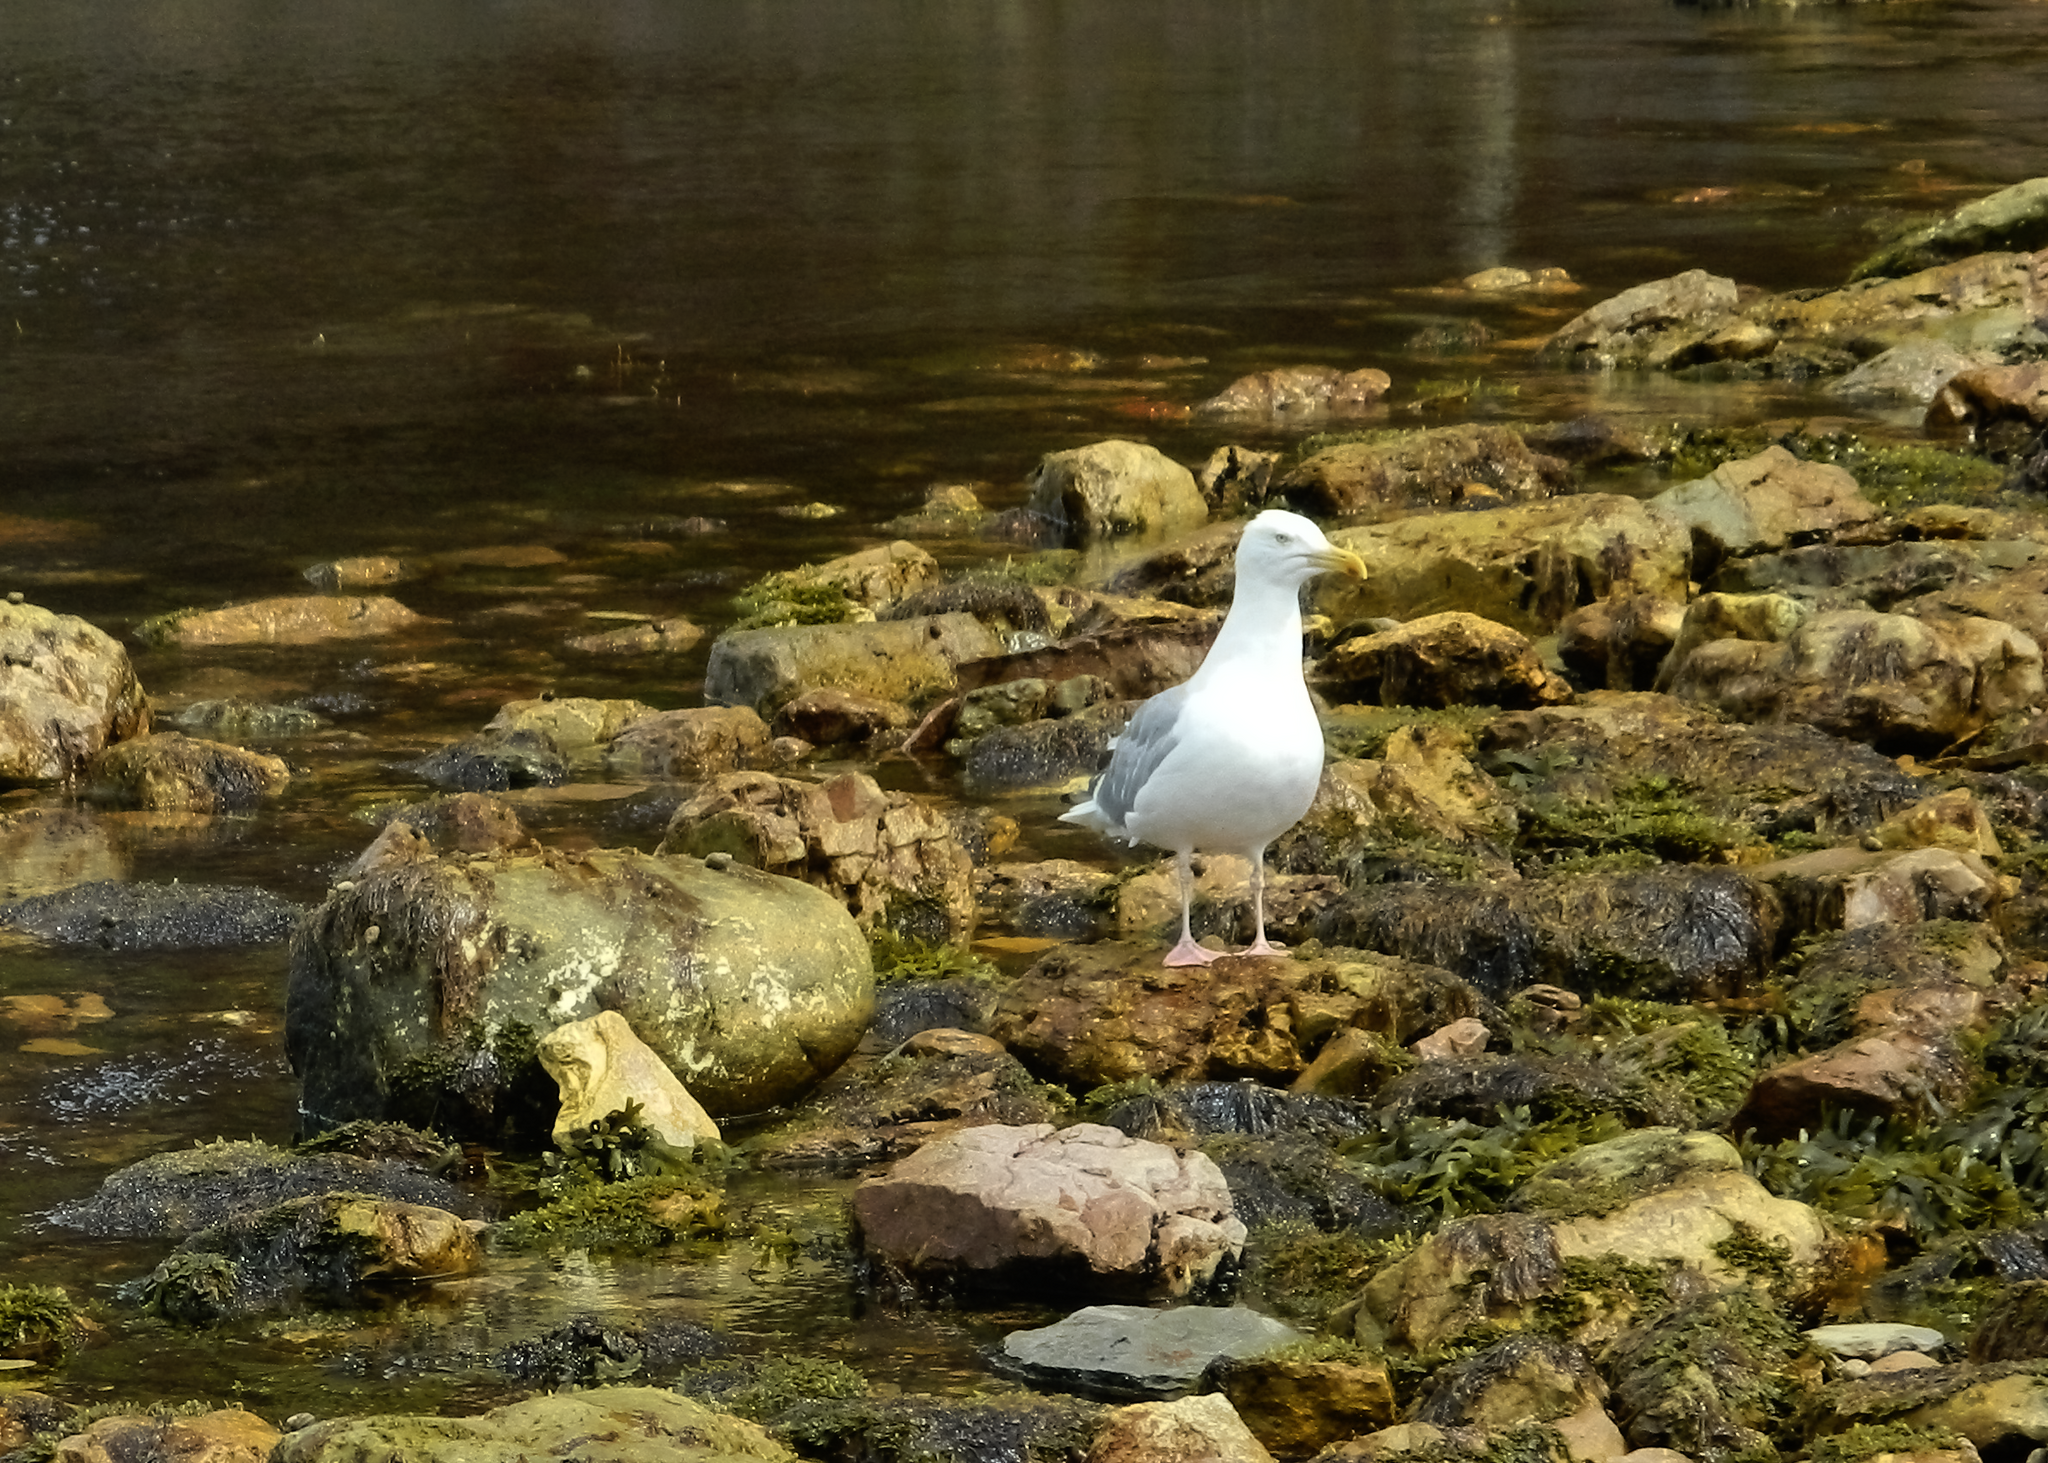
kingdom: Animalia
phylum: Chordata
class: Aves
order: Charadriiformes
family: Laridae
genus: Larus
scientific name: Larus argentatus
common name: Herring gull
